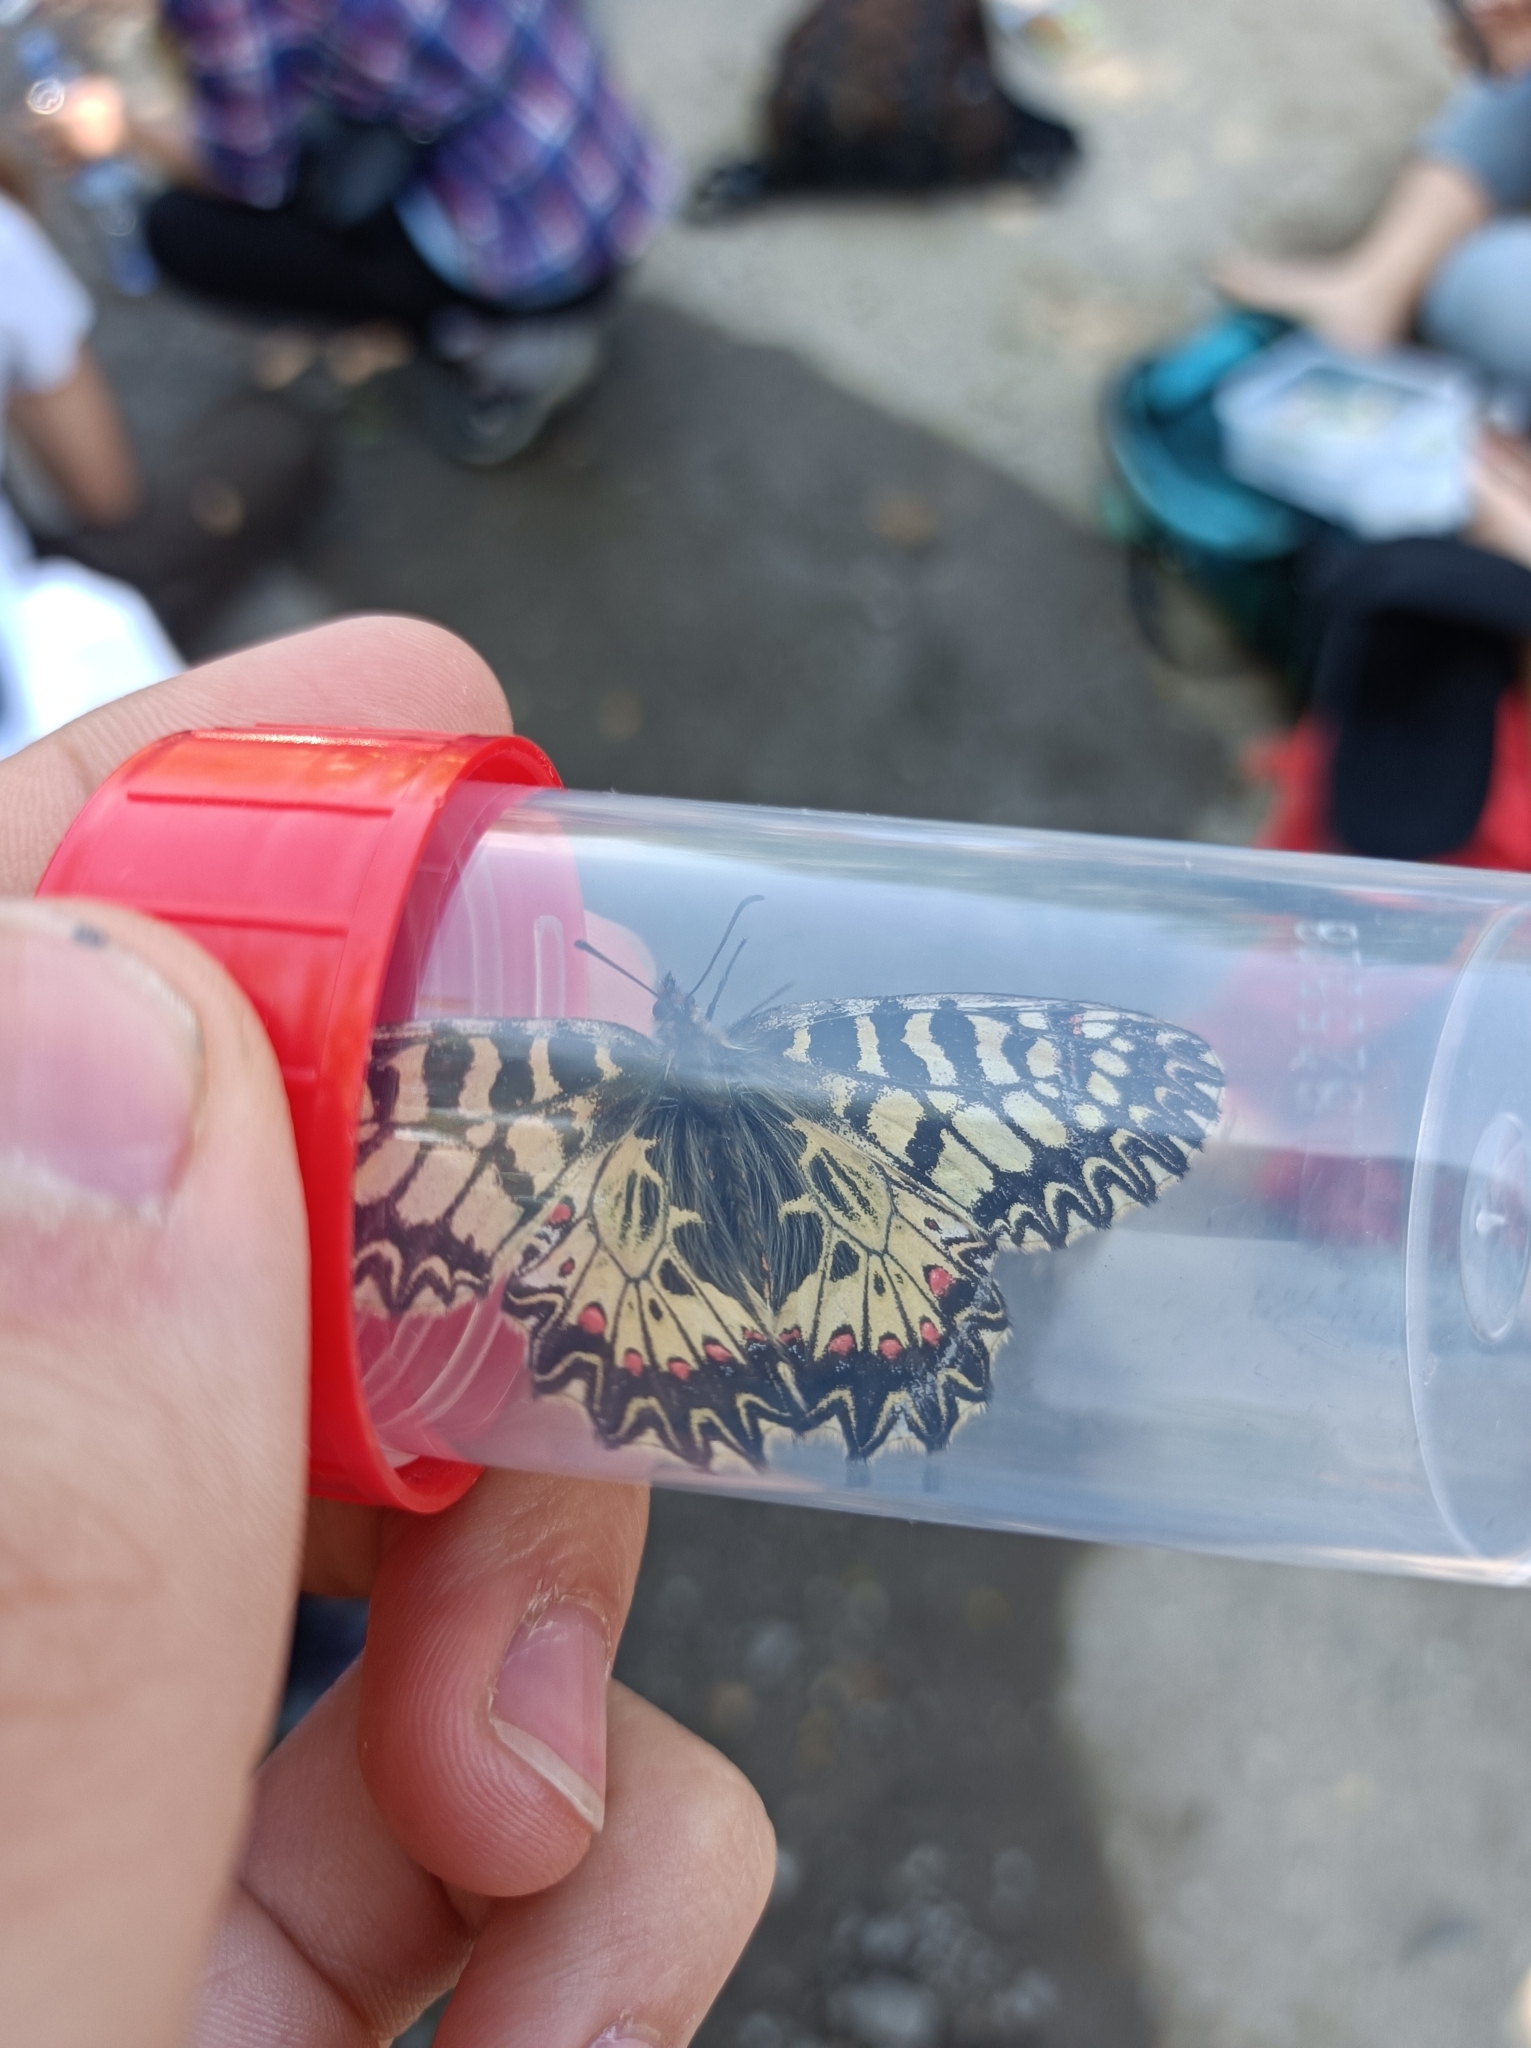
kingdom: Animalia
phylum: Arthropoda
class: Insecta
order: Lepidoptera
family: Papilionidae
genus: Zerynthia
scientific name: Zerynthia polyxena
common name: Southern festoon
